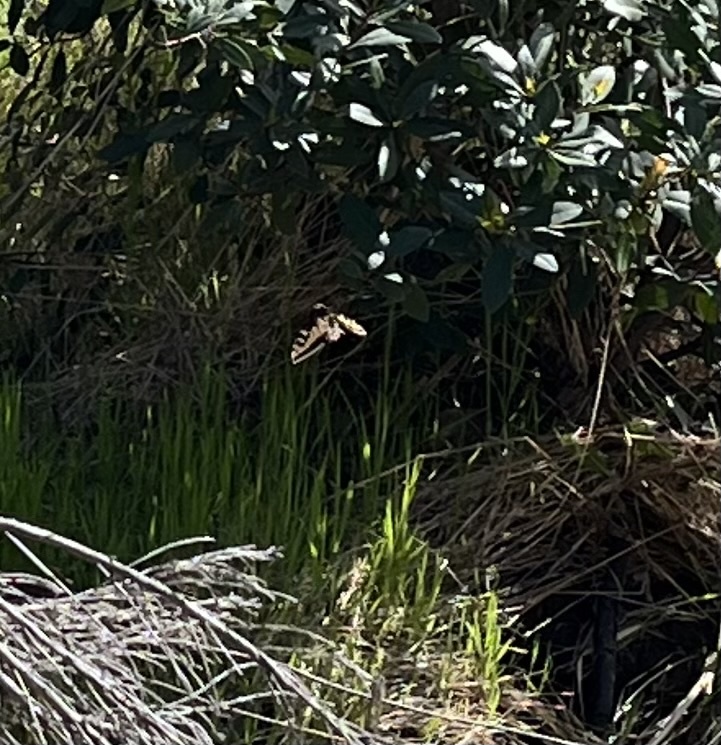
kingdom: Animalia
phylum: Arthropoda
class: Insecta
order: Lepidoptera
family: Papilionidae
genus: Papilio
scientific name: Papilio zelicaon
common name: Anise swallowtail
